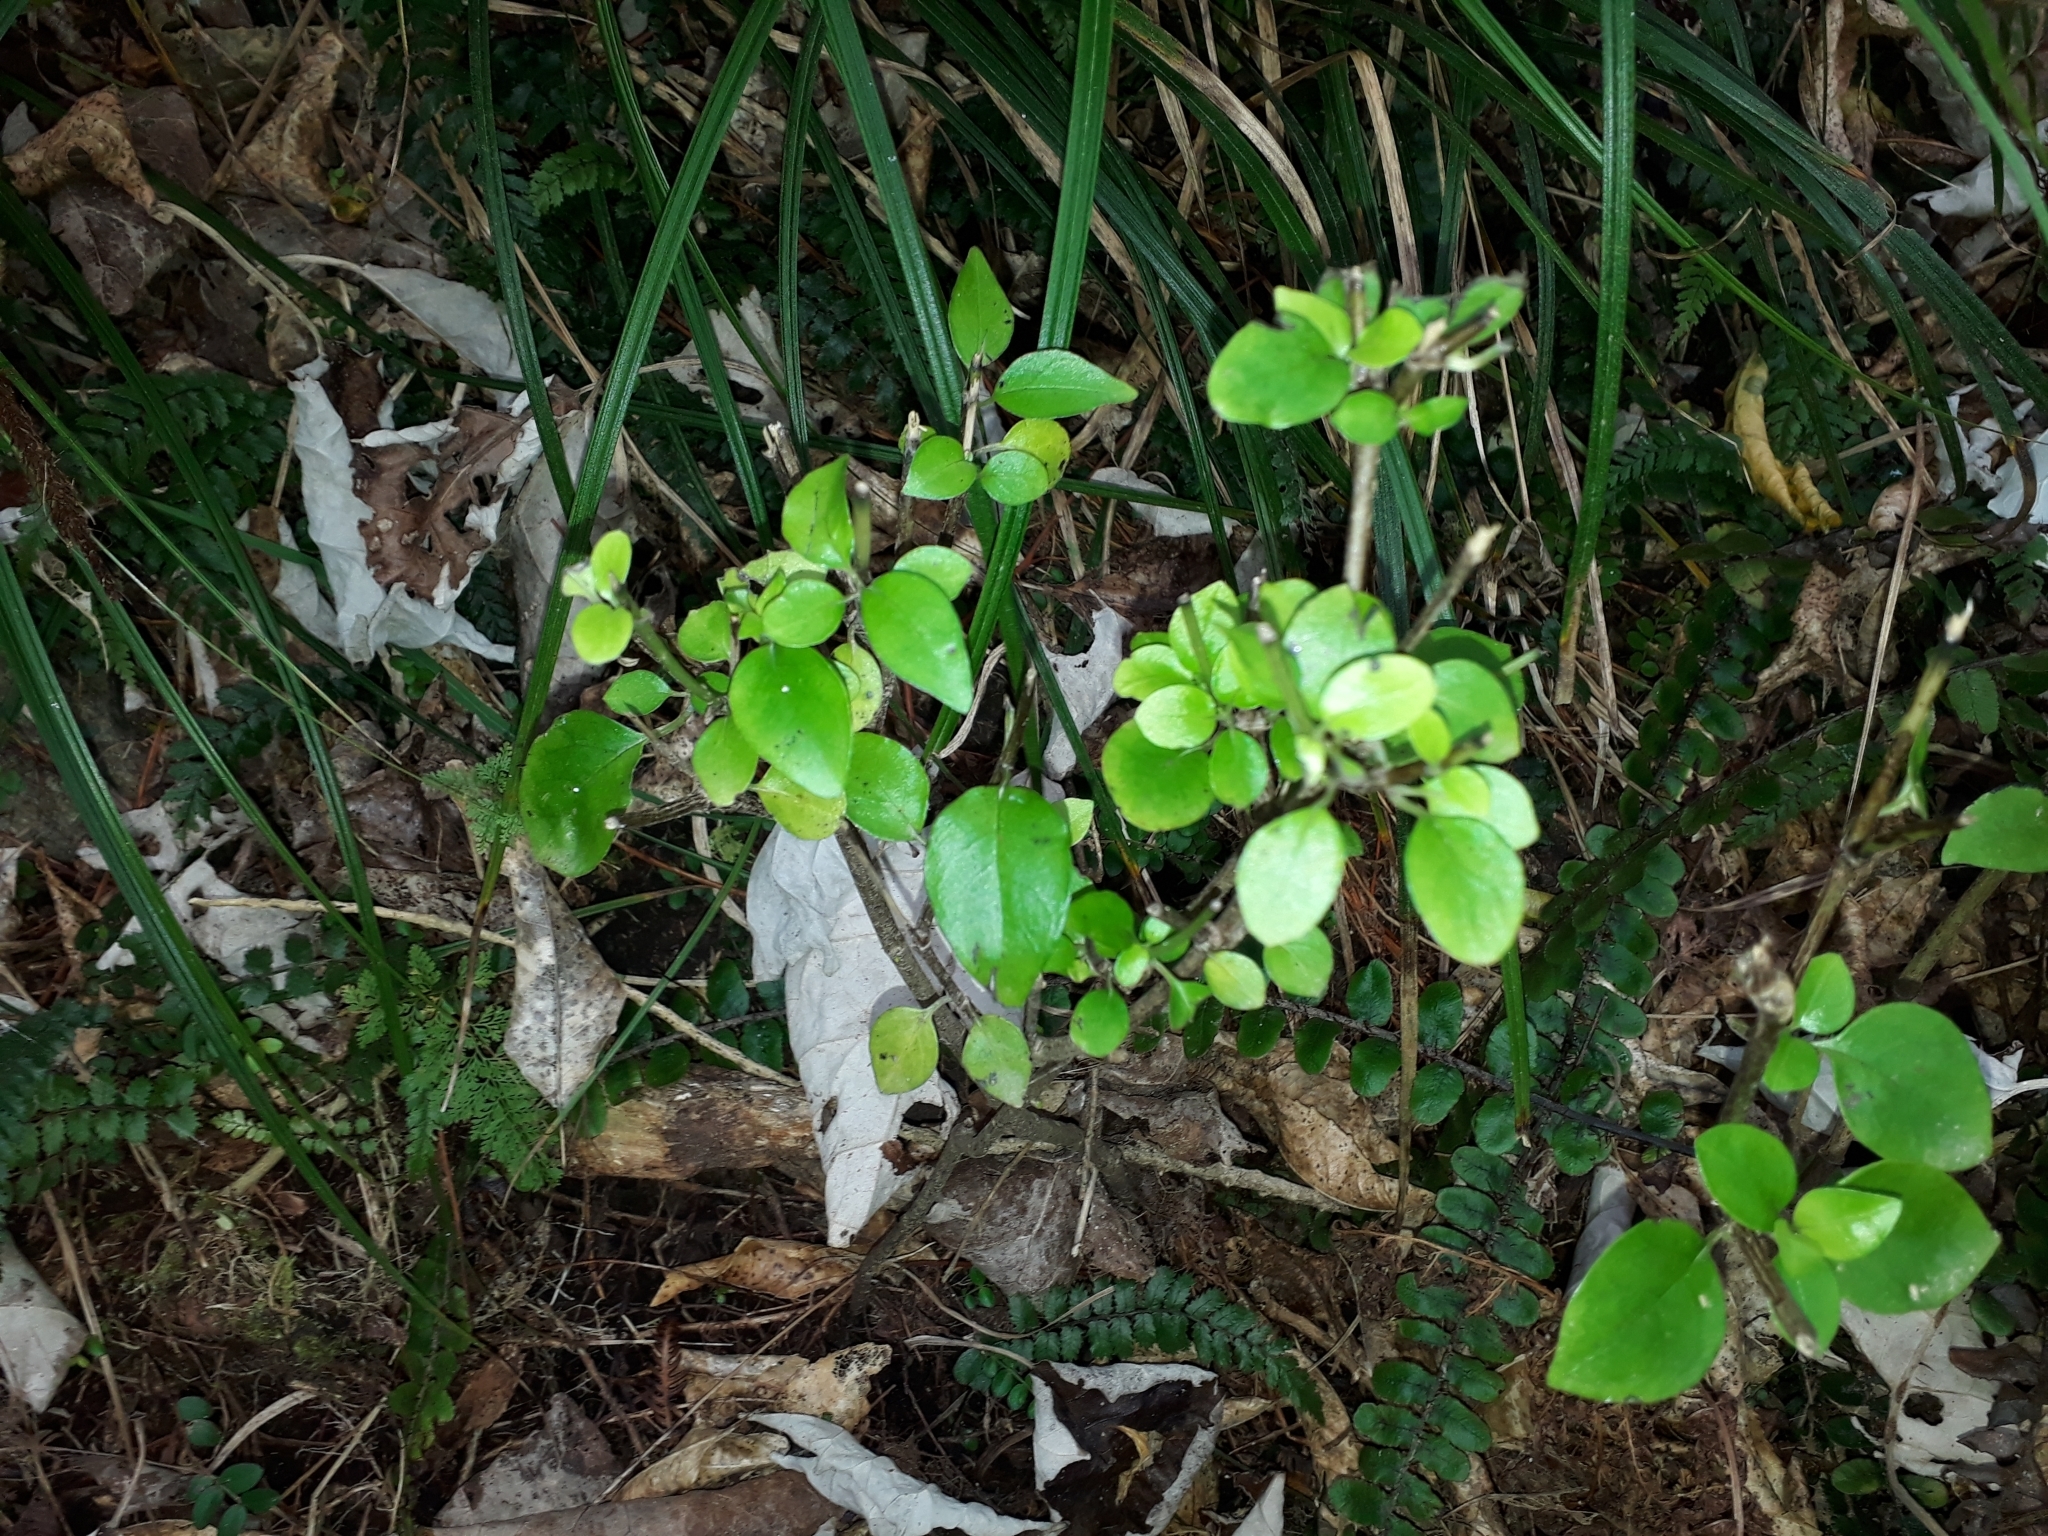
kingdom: Plantae
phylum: Tracheophyta
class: Magnoliopsida
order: Gentianales
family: Loganiaceae
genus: Geniostoma
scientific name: Geniostoma ligustrifolium
